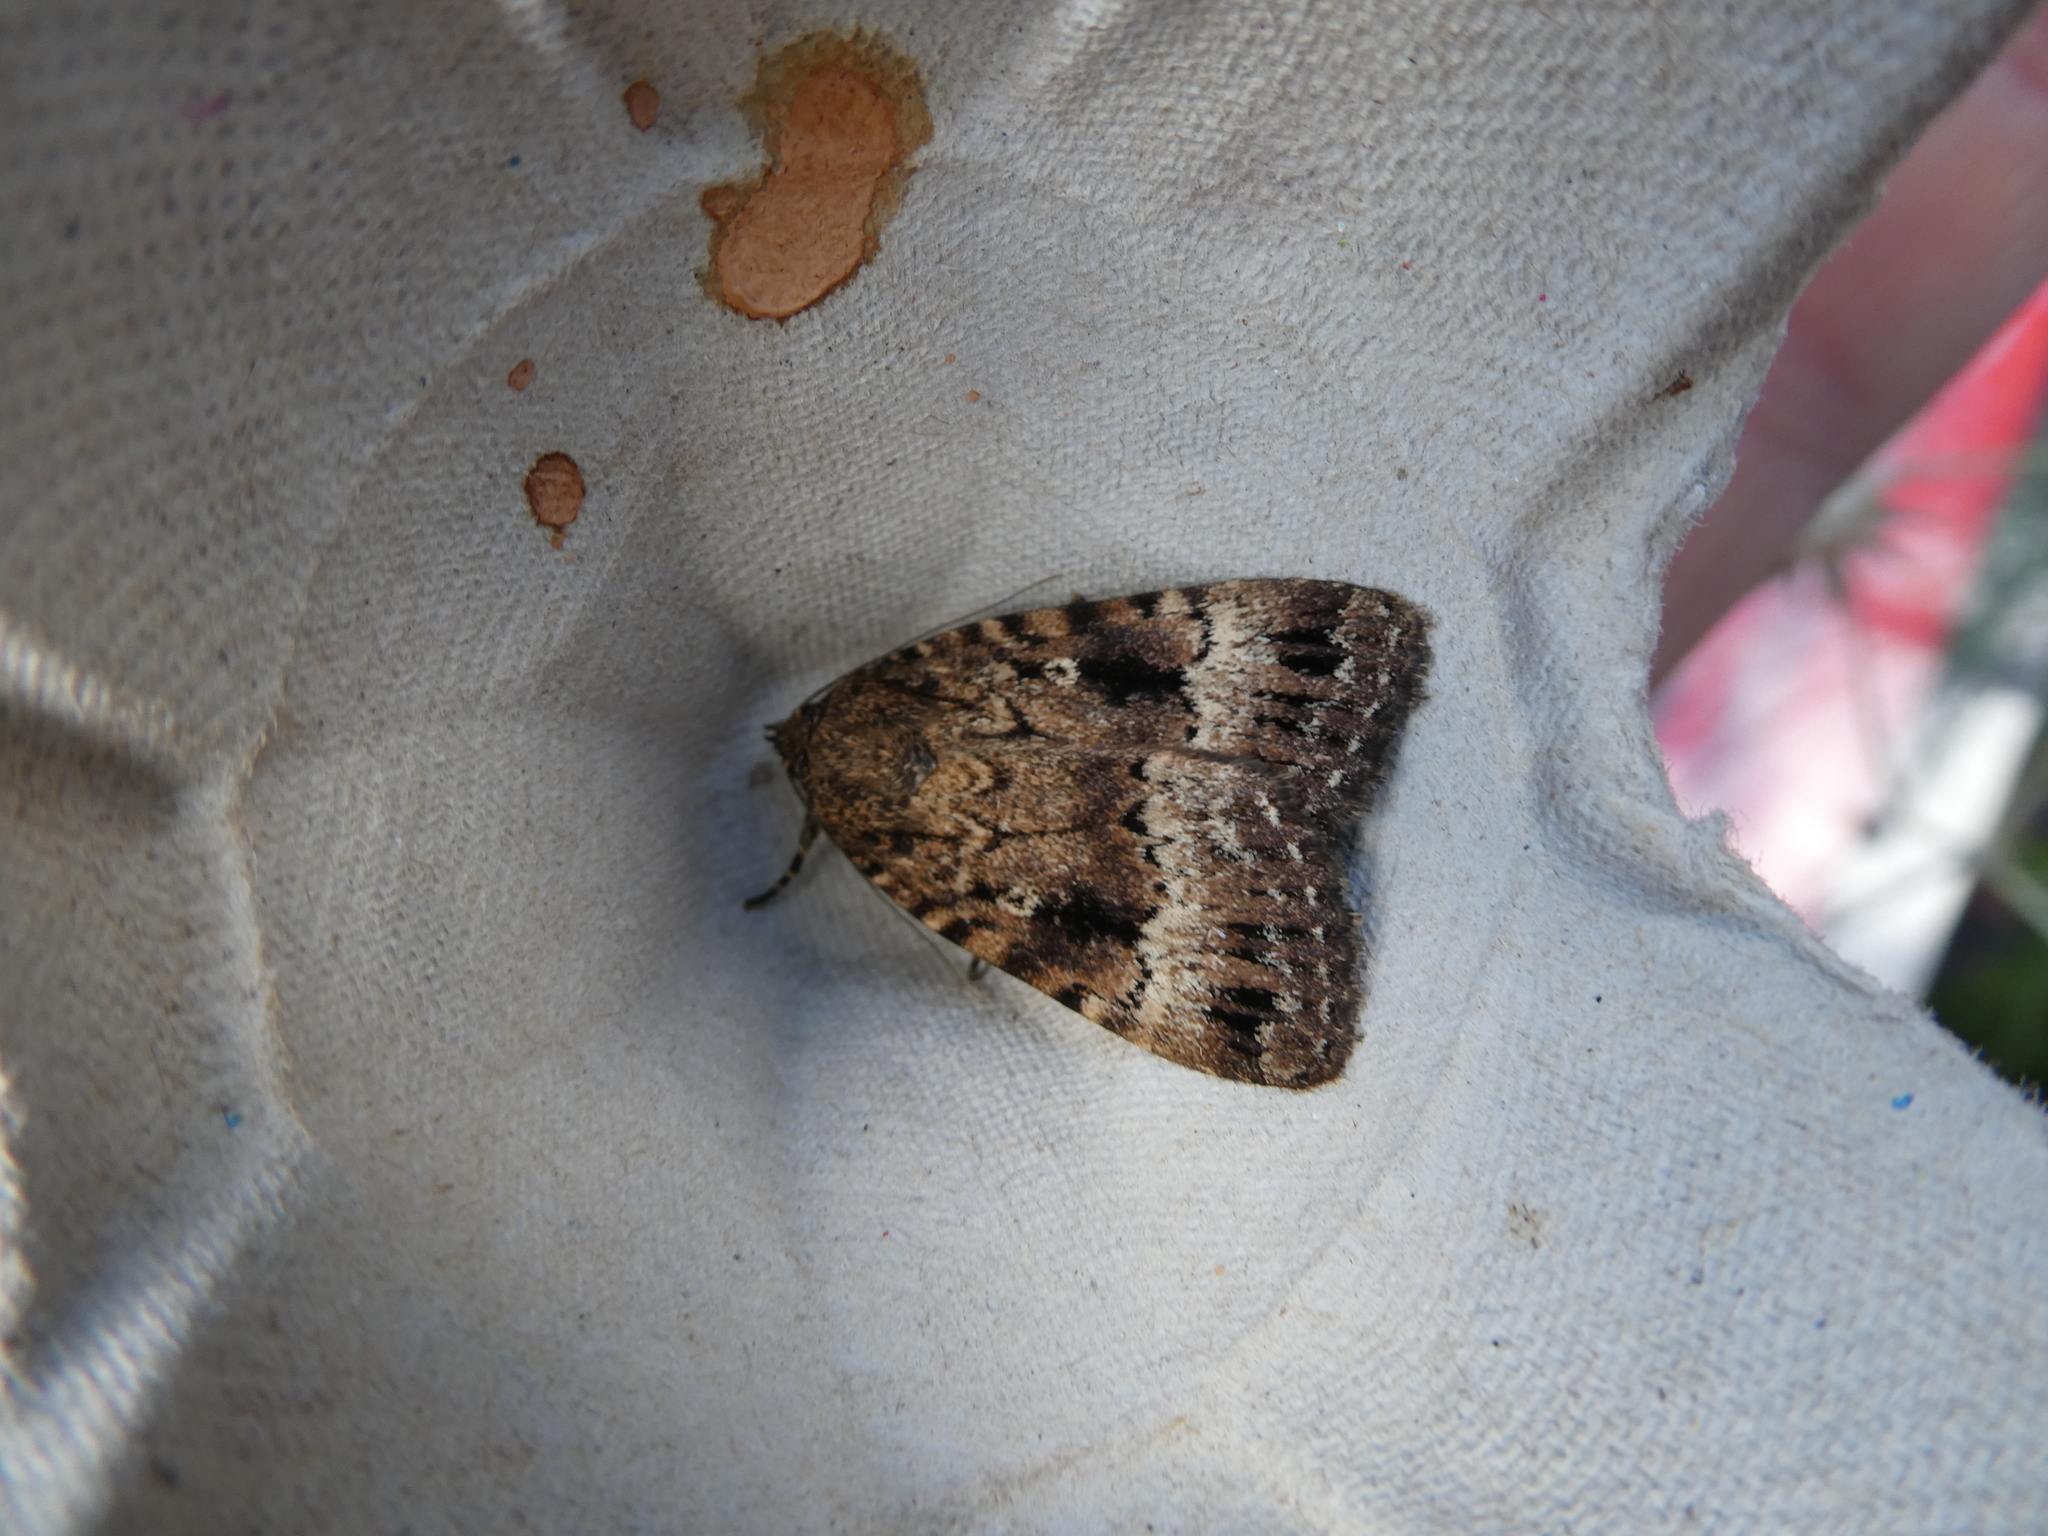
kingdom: Animalia
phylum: Arthropoda
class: Insecta
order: Lepidoptera
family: Noctuidae
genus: Amphipyra
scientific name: Amphipyra
